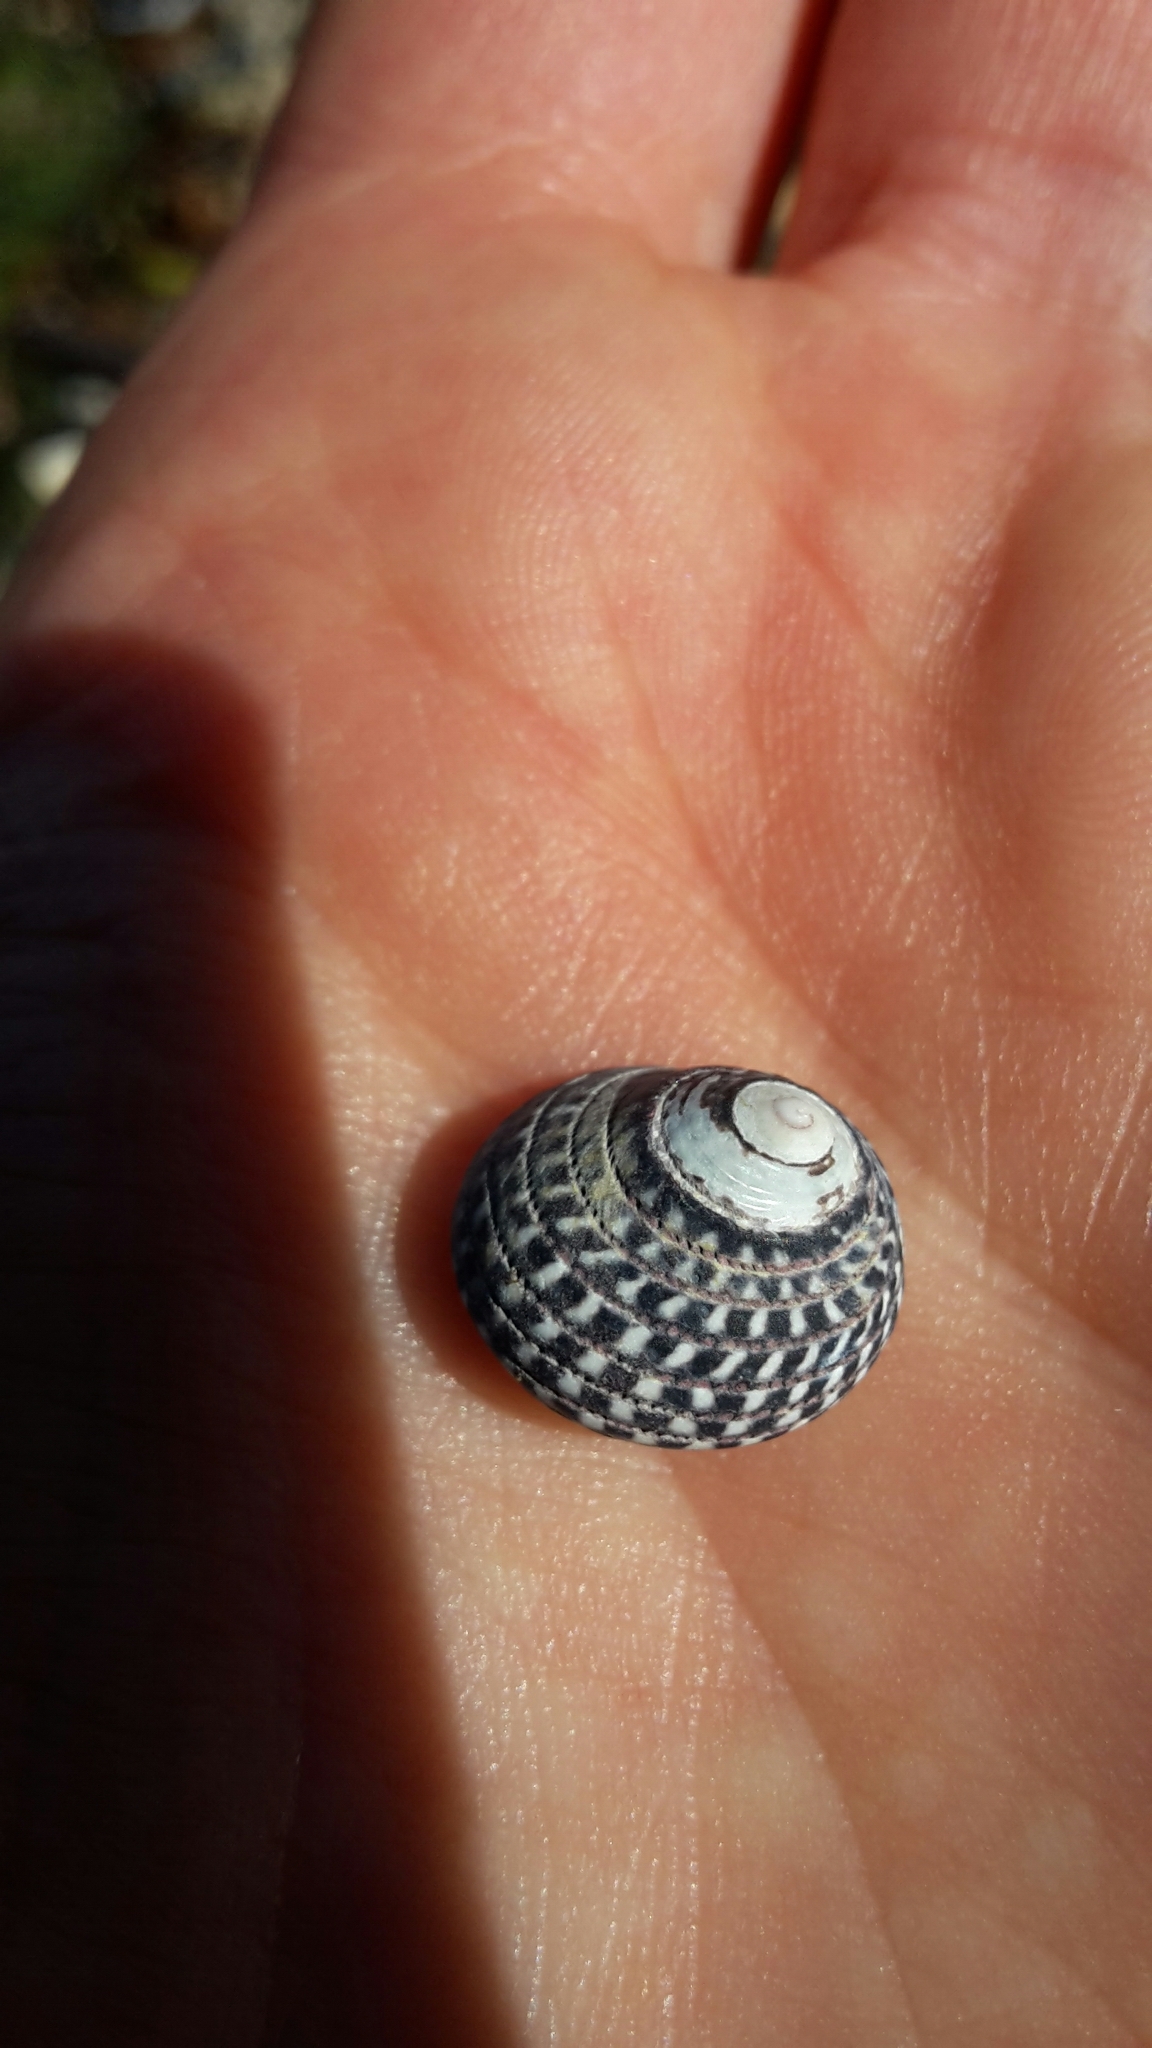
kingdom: Animalia
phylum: Mollusca
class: Gastropoda
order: Trochida
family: Trochidae
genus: Diloma
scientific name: Diloma aethiops
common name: Scorched monodont
